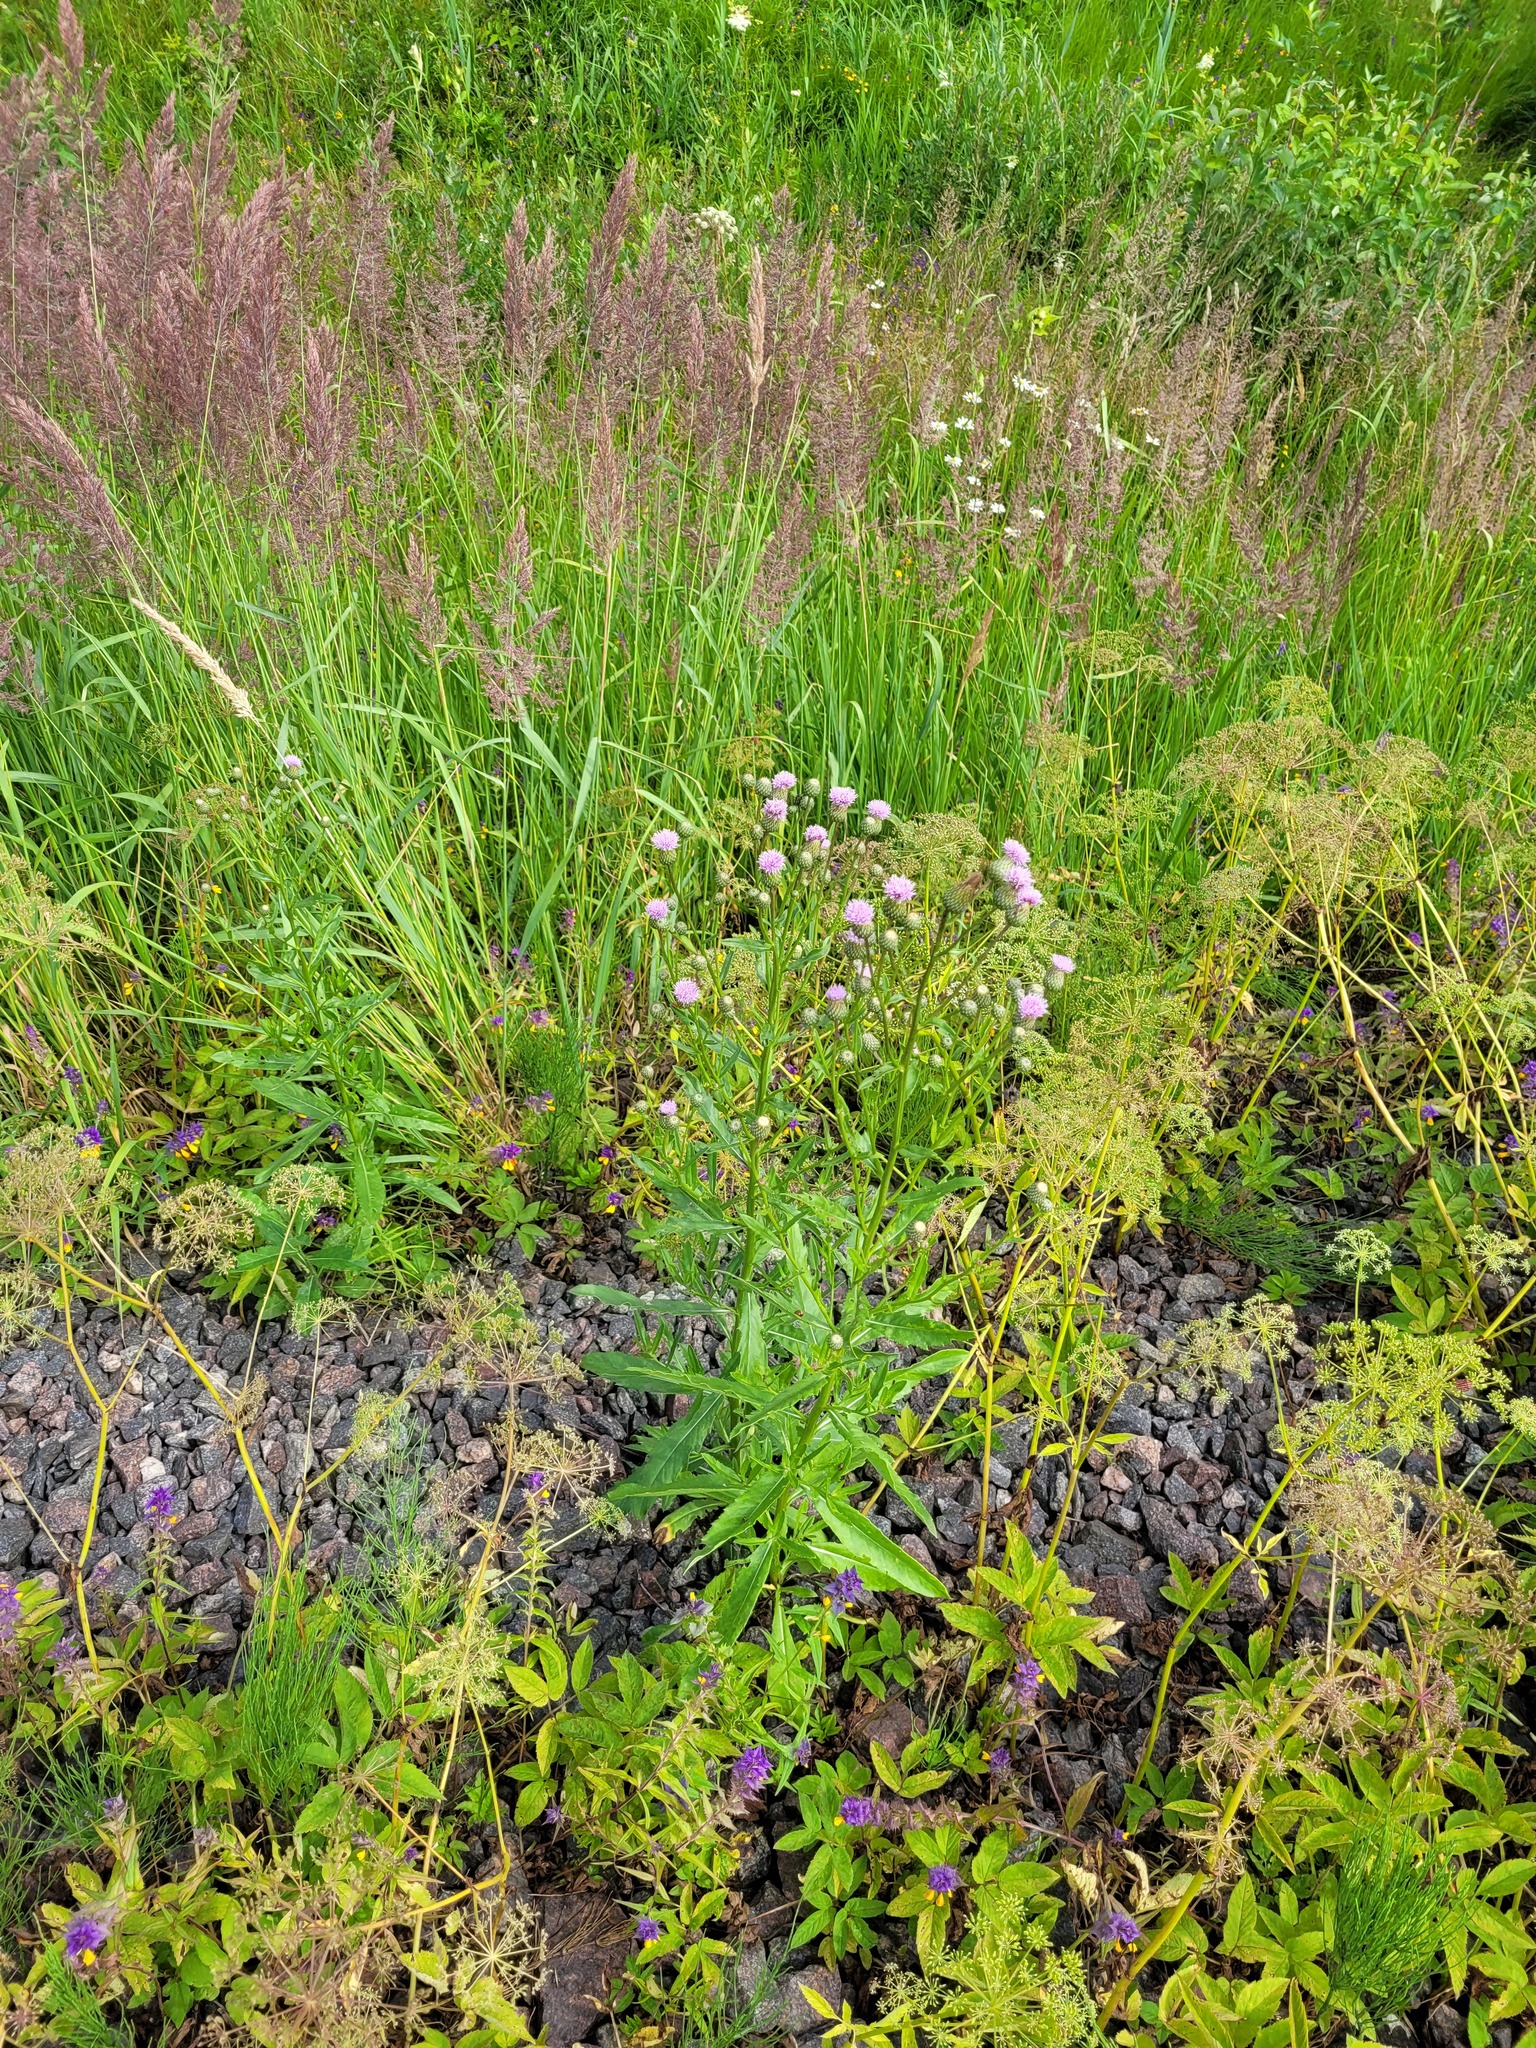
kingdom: Plantae
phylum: Tracheophyta
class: Magnoliopsida
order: Asterales
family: Asteraceae
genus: Cirsium
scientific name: Cirsium arvense
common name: Creeping thistle
